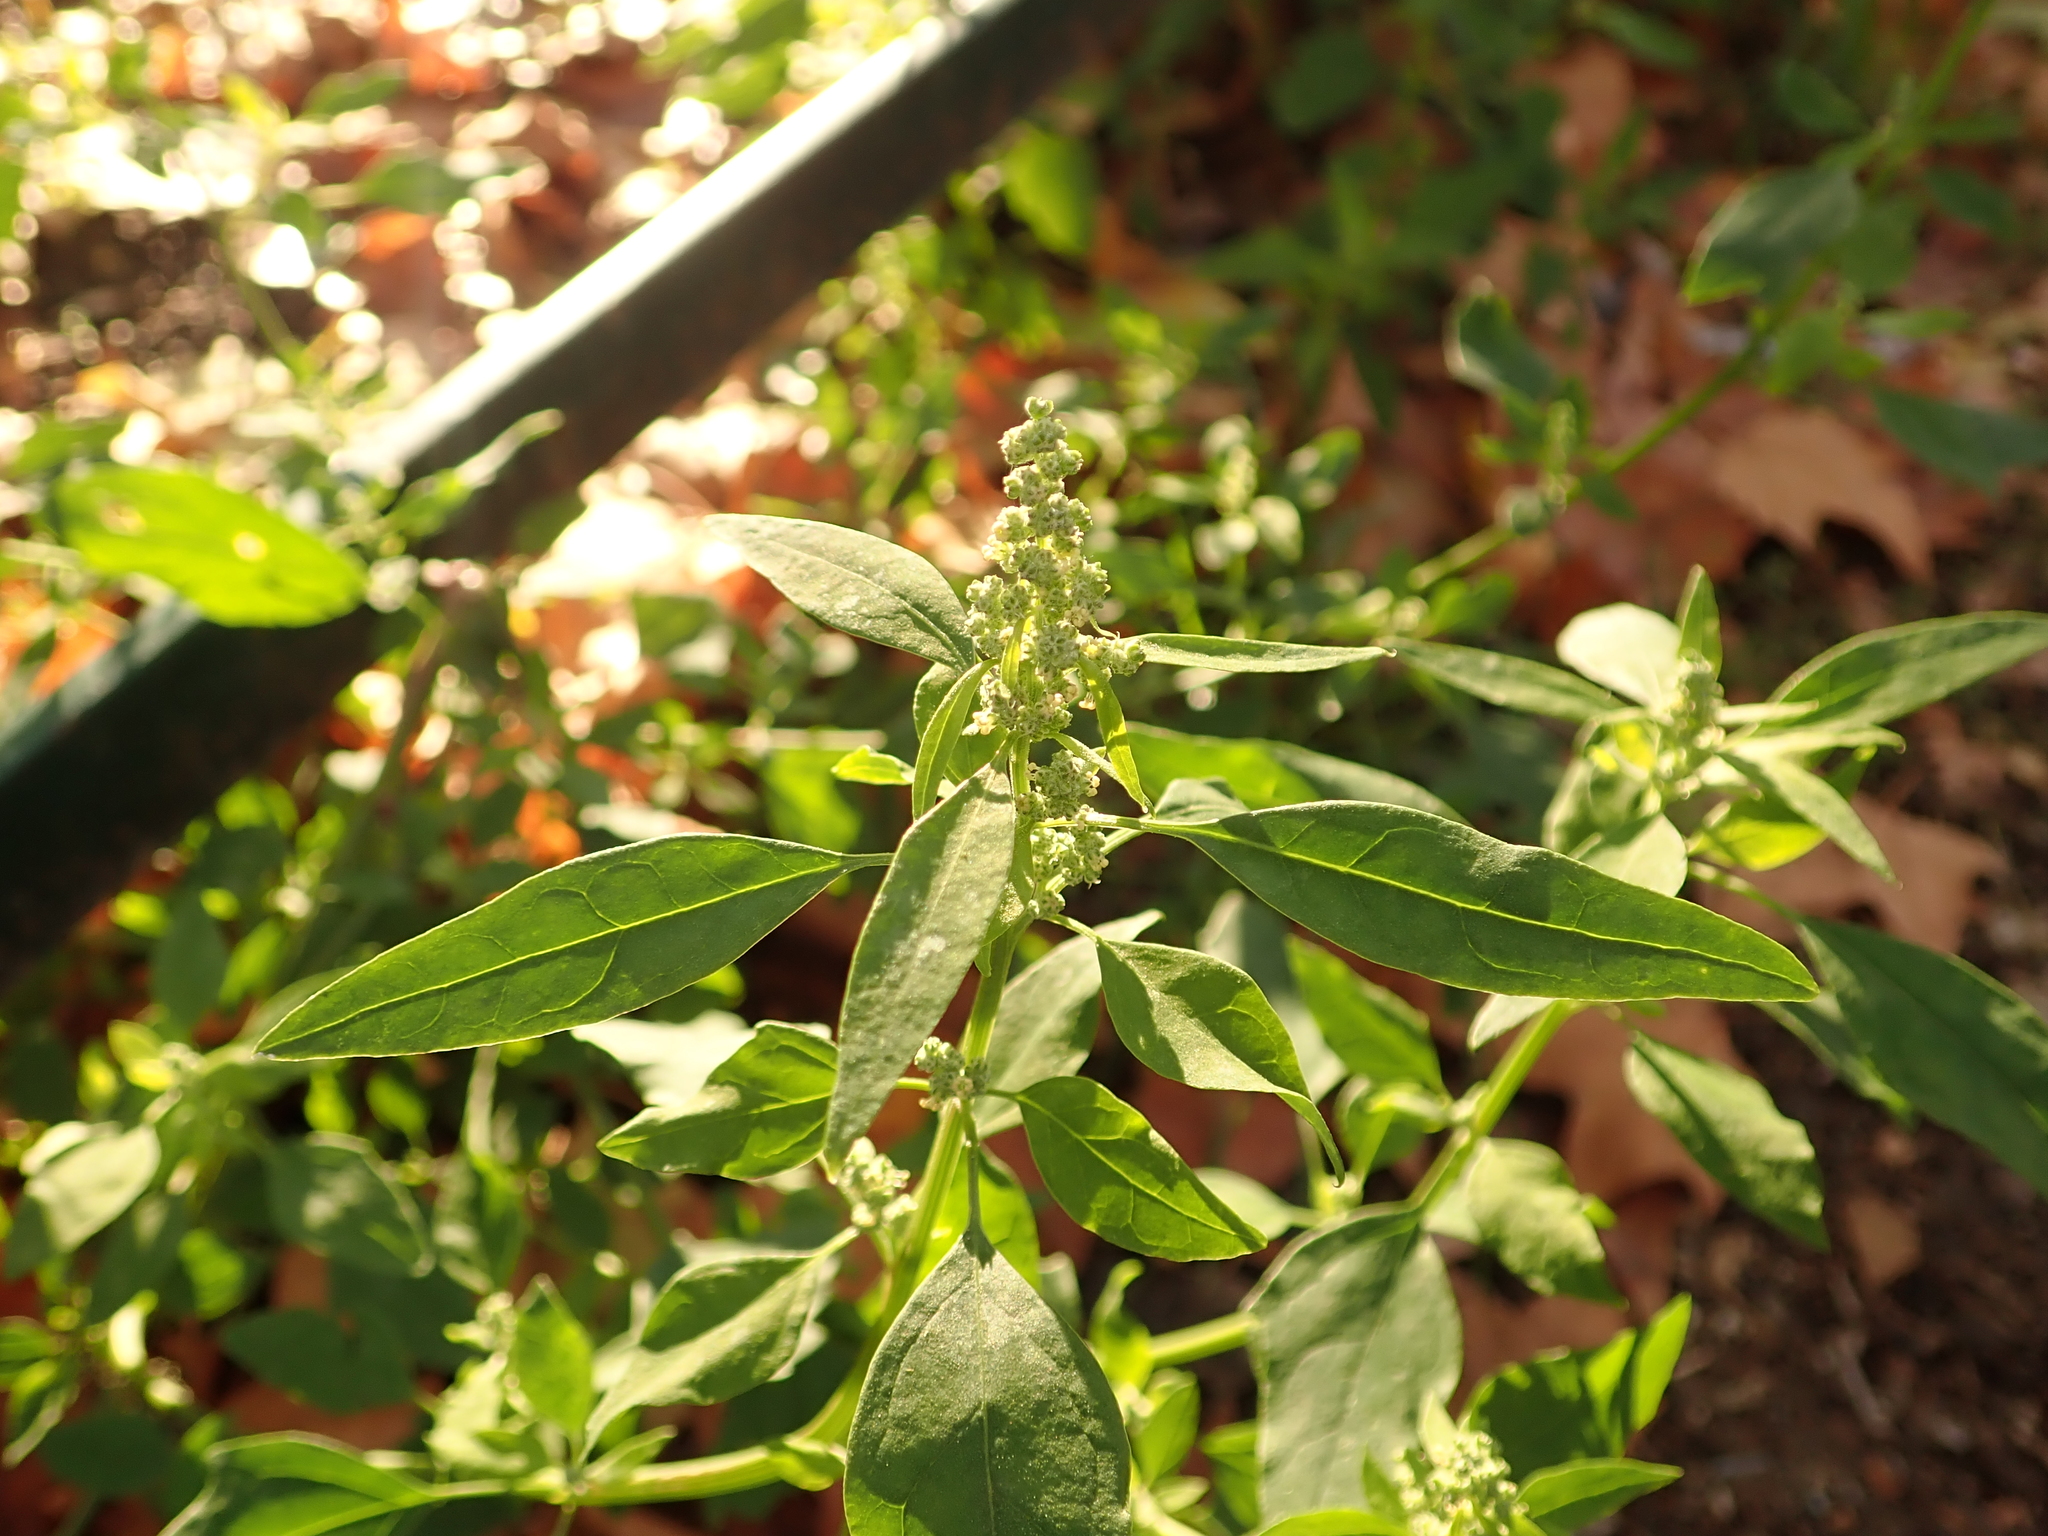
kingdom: Plantae
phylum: Tracheophyta
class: Magnoliopsida
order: Caryophyllales
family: Amaranthaceae
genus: Chenopodium
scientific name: Chenopodium album
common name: Fat-hen
